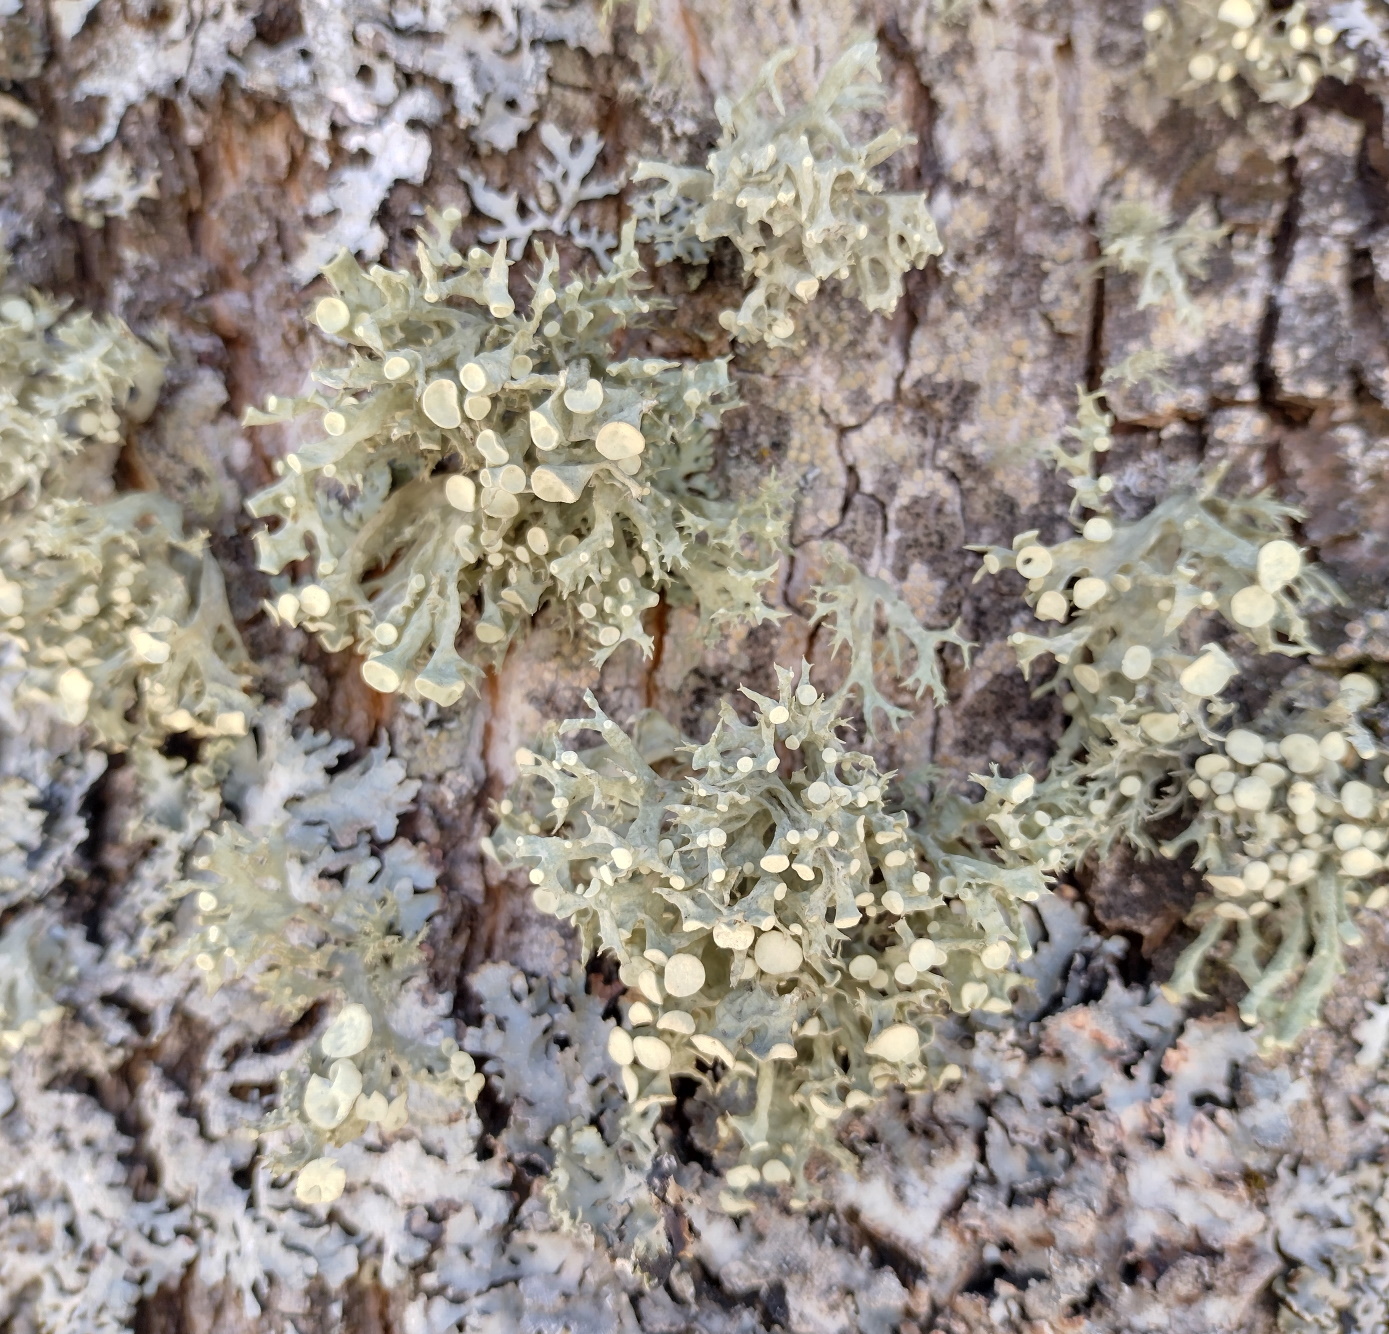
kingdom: Fungi
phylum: Ascomycota
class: Lecanoromycetes
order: Lecanorales
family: Ramalinaceae
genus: Ramalina
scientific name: Ramalina fastigiata
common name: Dotted ribbon lichen
